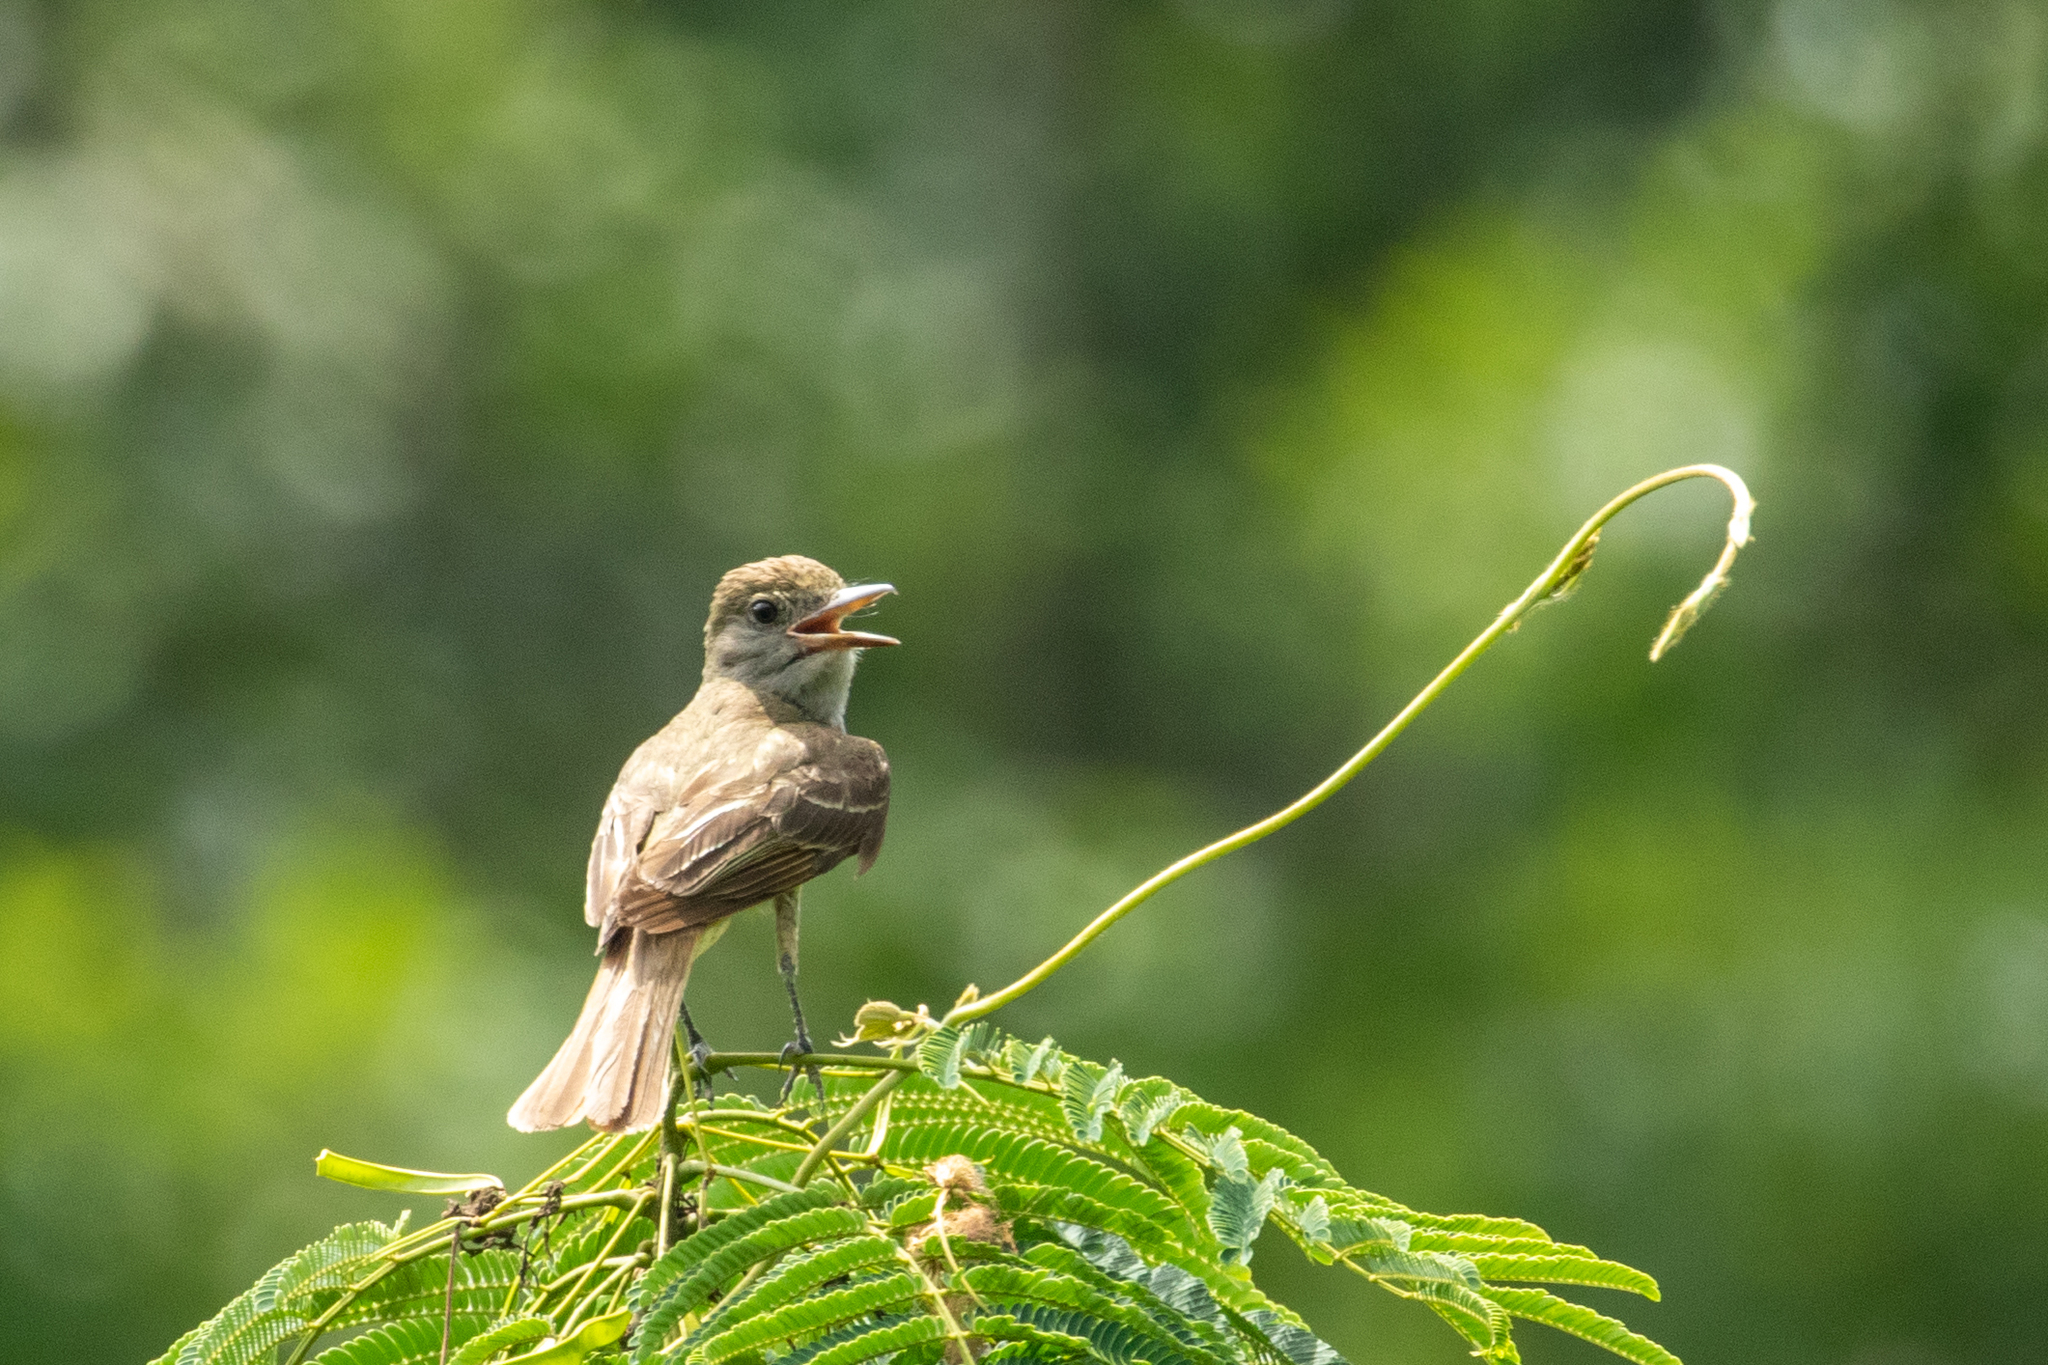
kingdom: Animalia
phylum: Chordata
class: Aves
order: Passeriformes
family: Tyrannidae
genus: Myiarchus
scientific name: Myiarchus crinitus
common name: Great crested flycatcher
